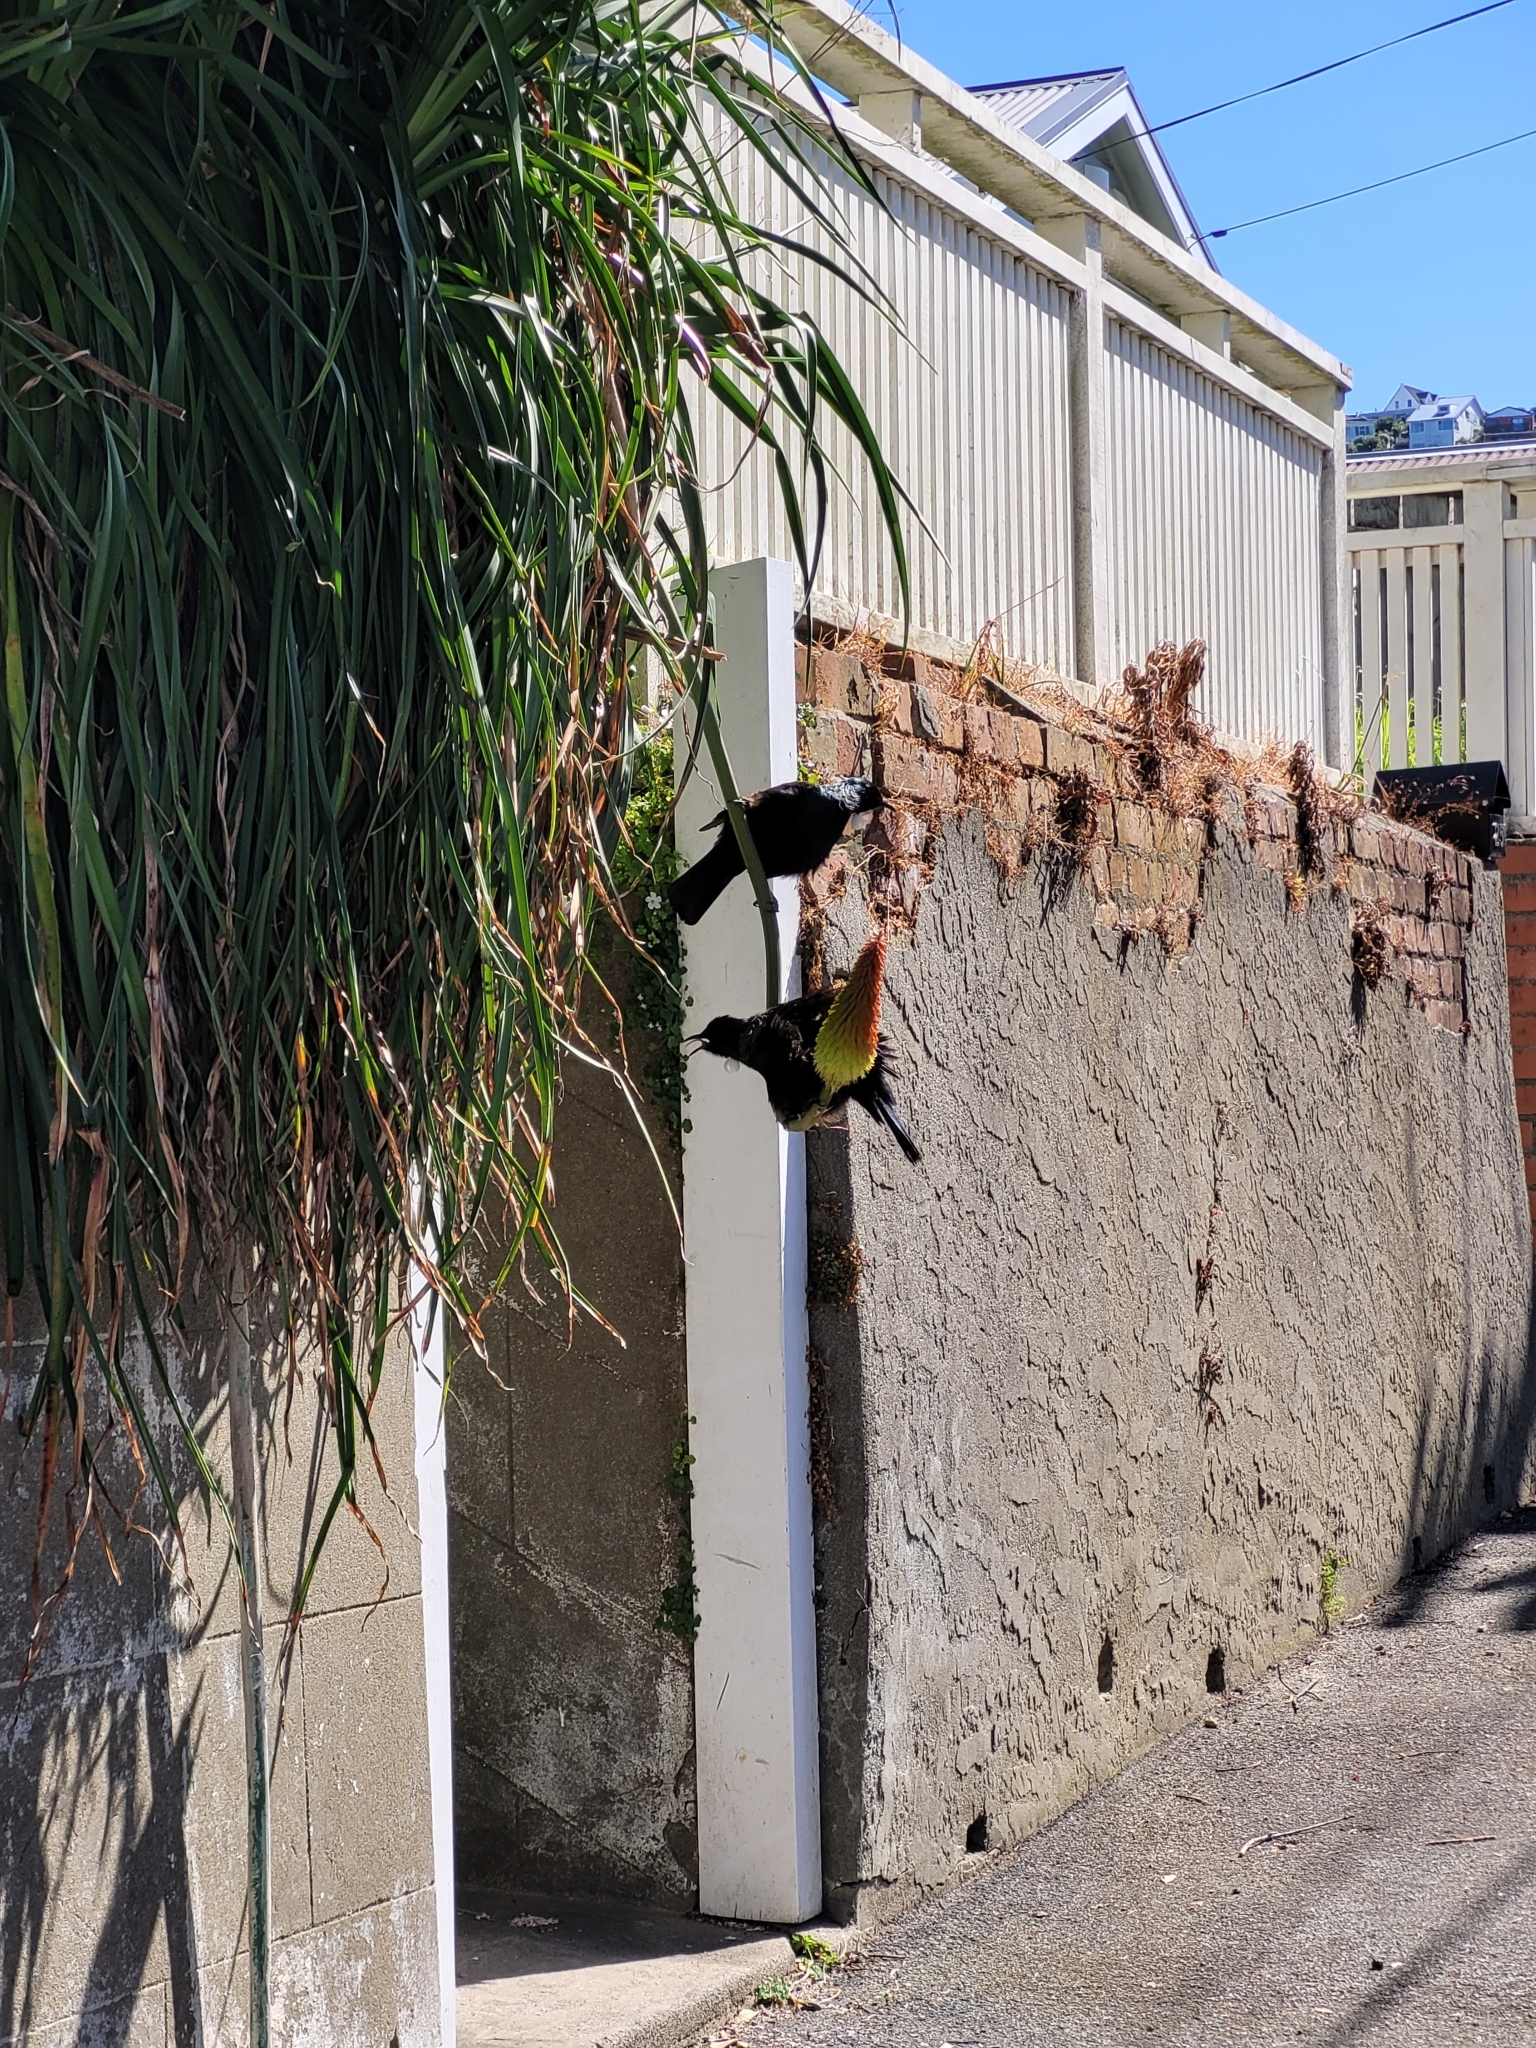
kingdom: Animalia
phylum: Chordata
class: Aves
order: Passeriformes
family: Meliphagidae
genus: Prosthemadera
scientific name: Prosthemadera novaeseelandiae
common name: Tui
